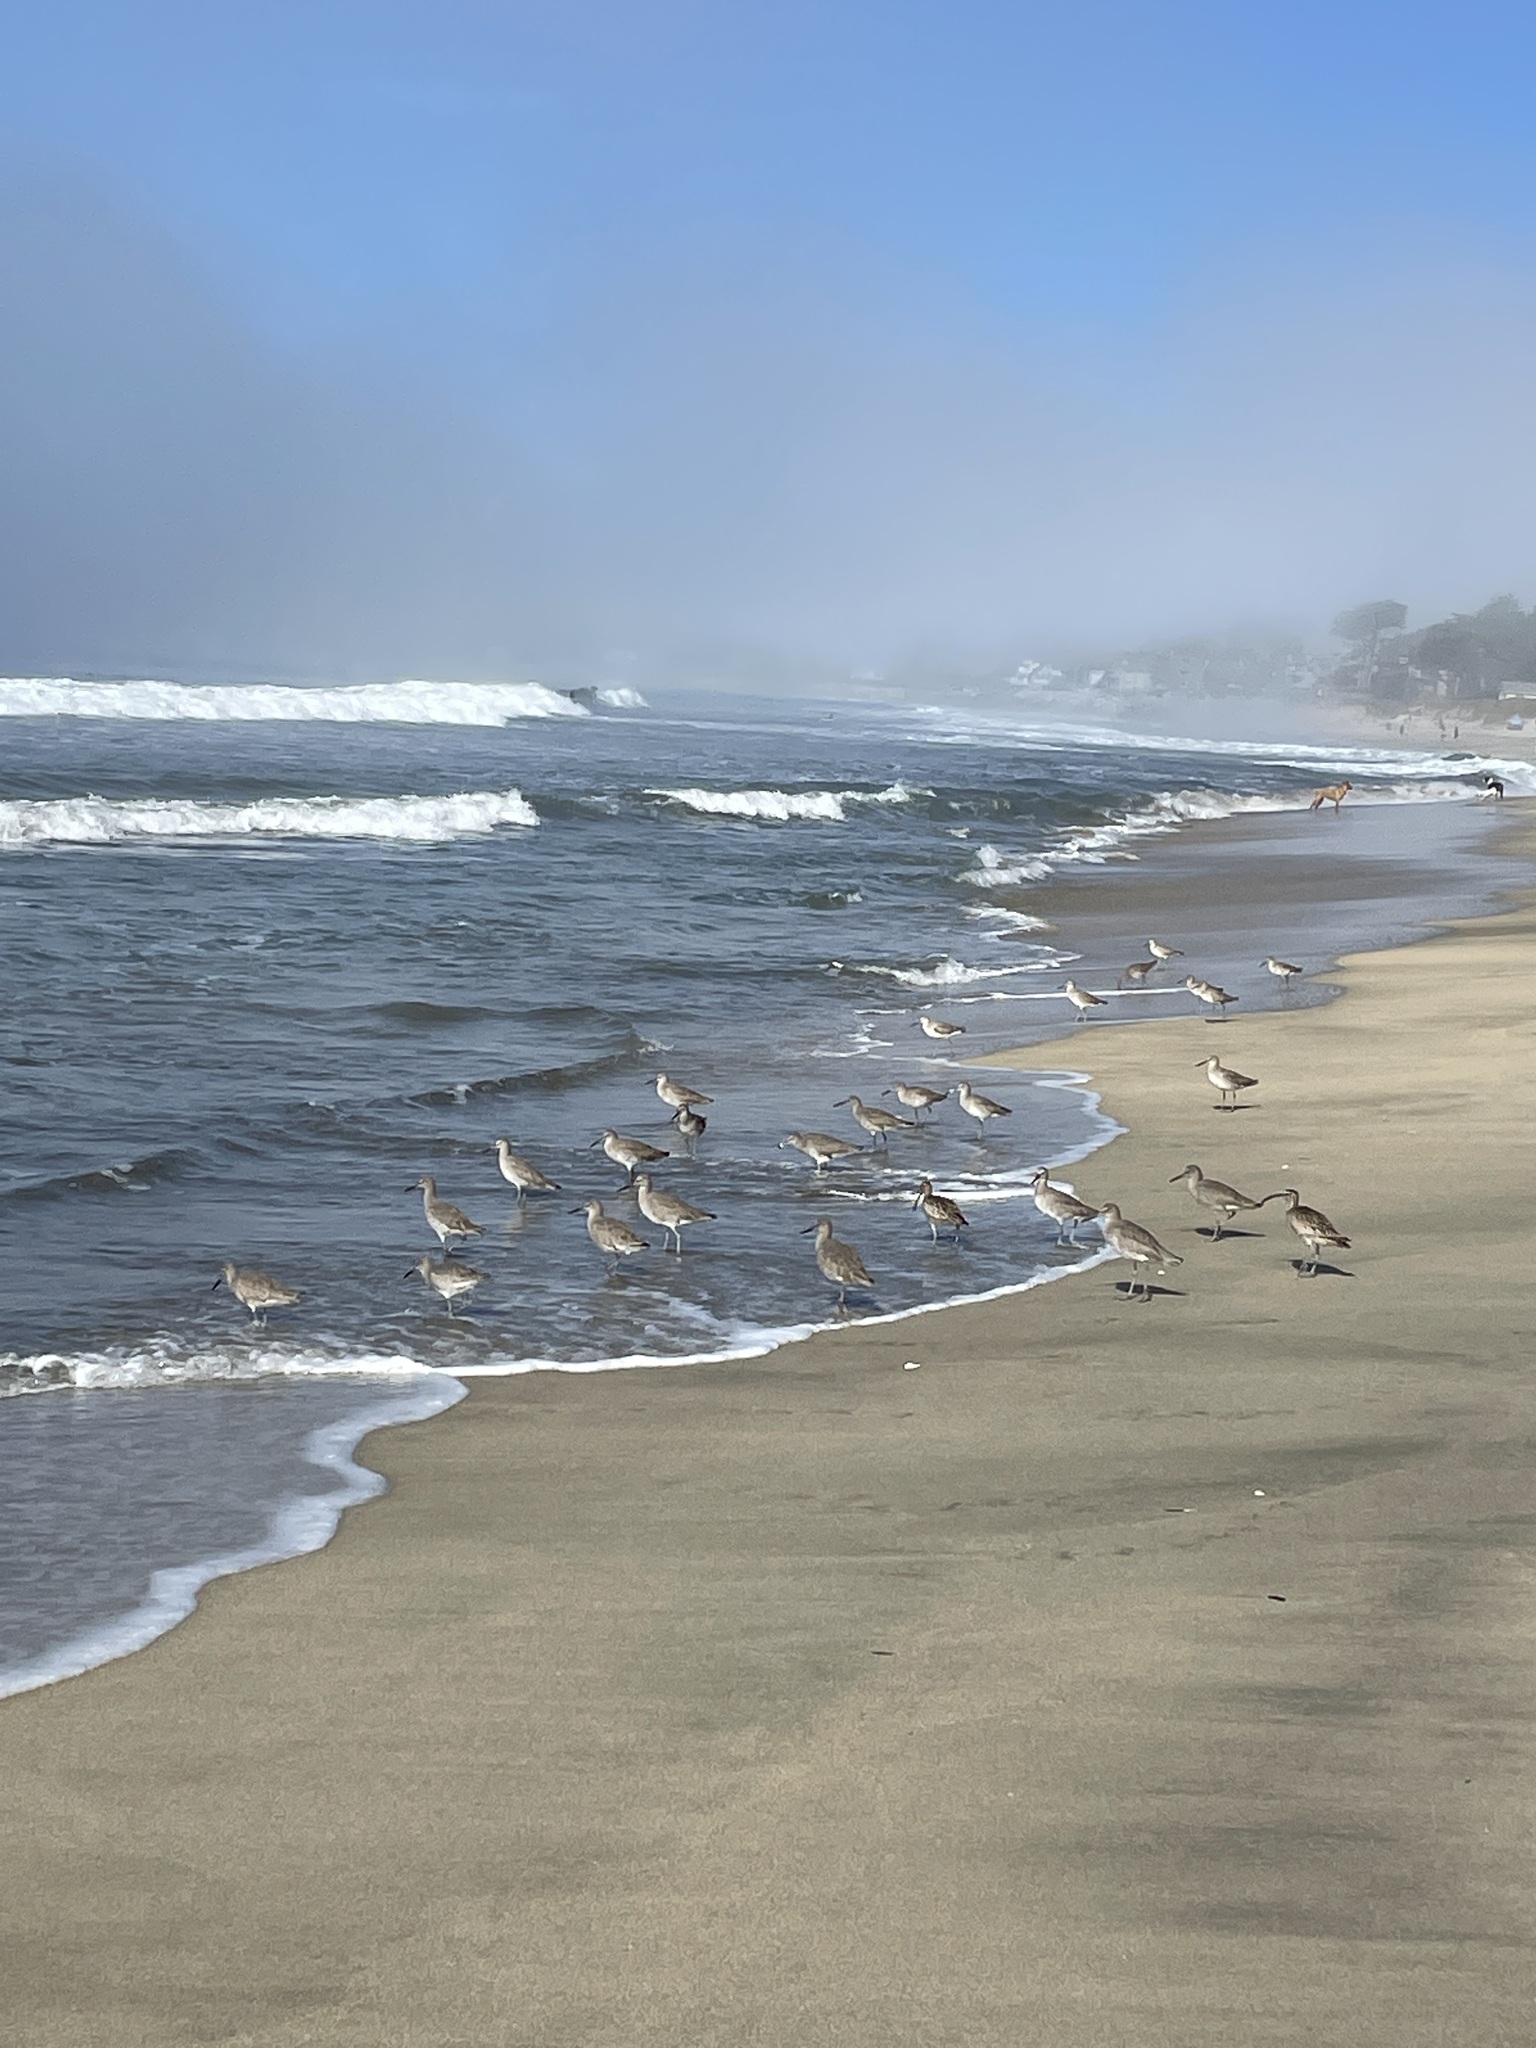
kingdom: Animalia
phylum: Chordata
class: Aves
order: Charadriiformes
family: Scolopacidae
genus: Tringa
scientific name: Tringa semipalmata
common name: Willet
